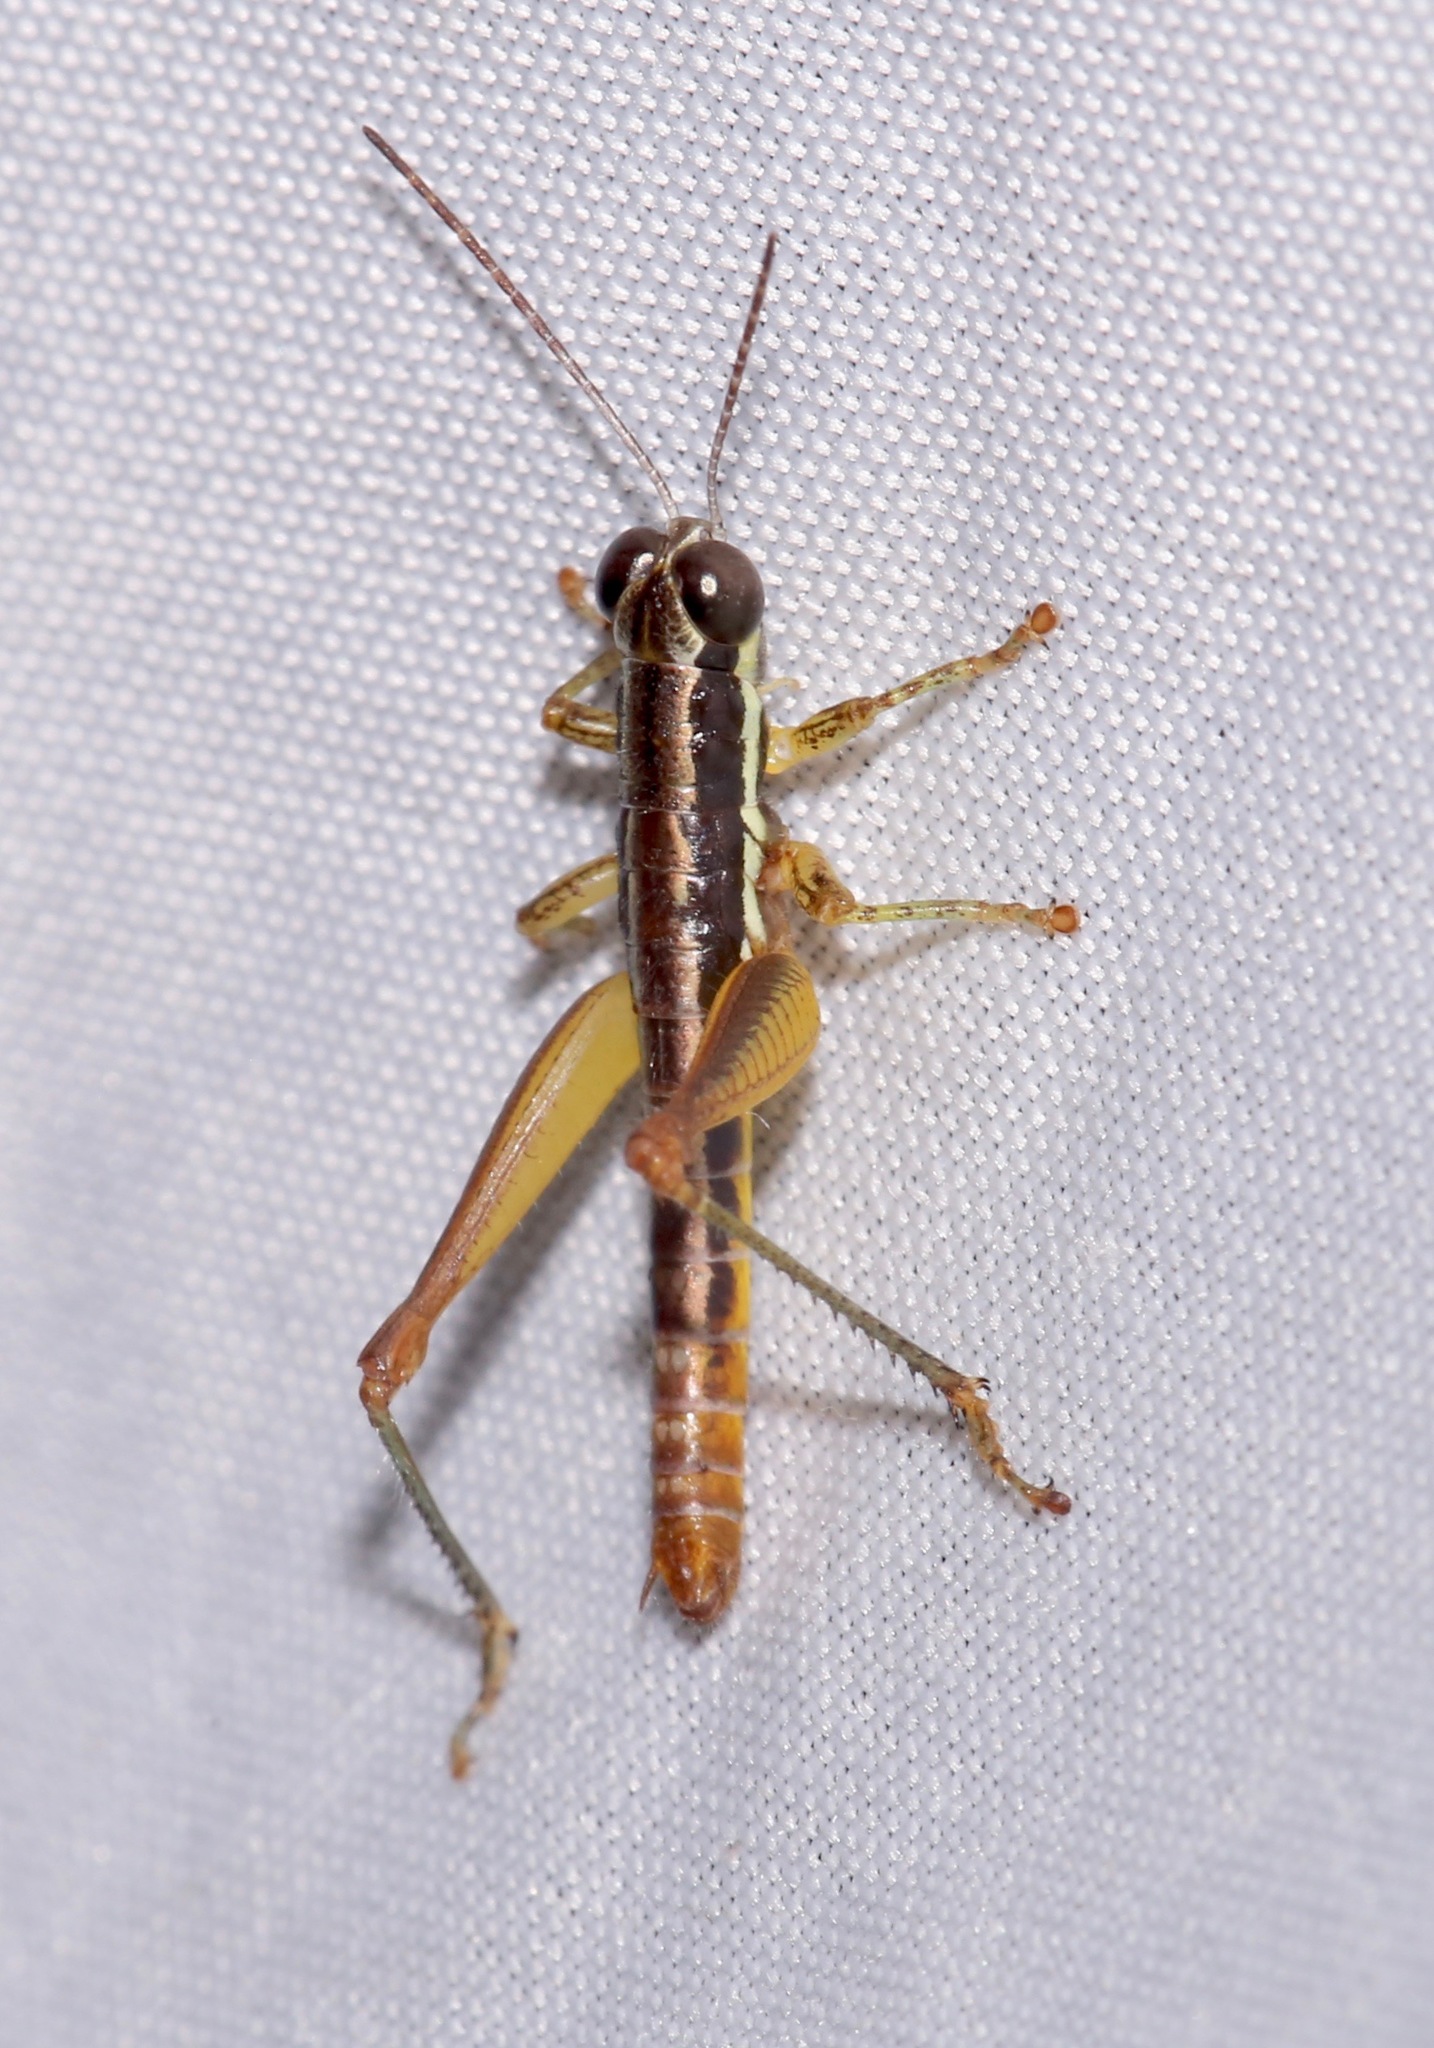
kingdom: Animalia
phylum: Arthropoda
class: Insecta
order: Orthoptera
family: Acrididae
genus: Gymnoscirtetes
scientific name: Gymnoscirtetes pusillus
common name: Little wingless grasshopper
